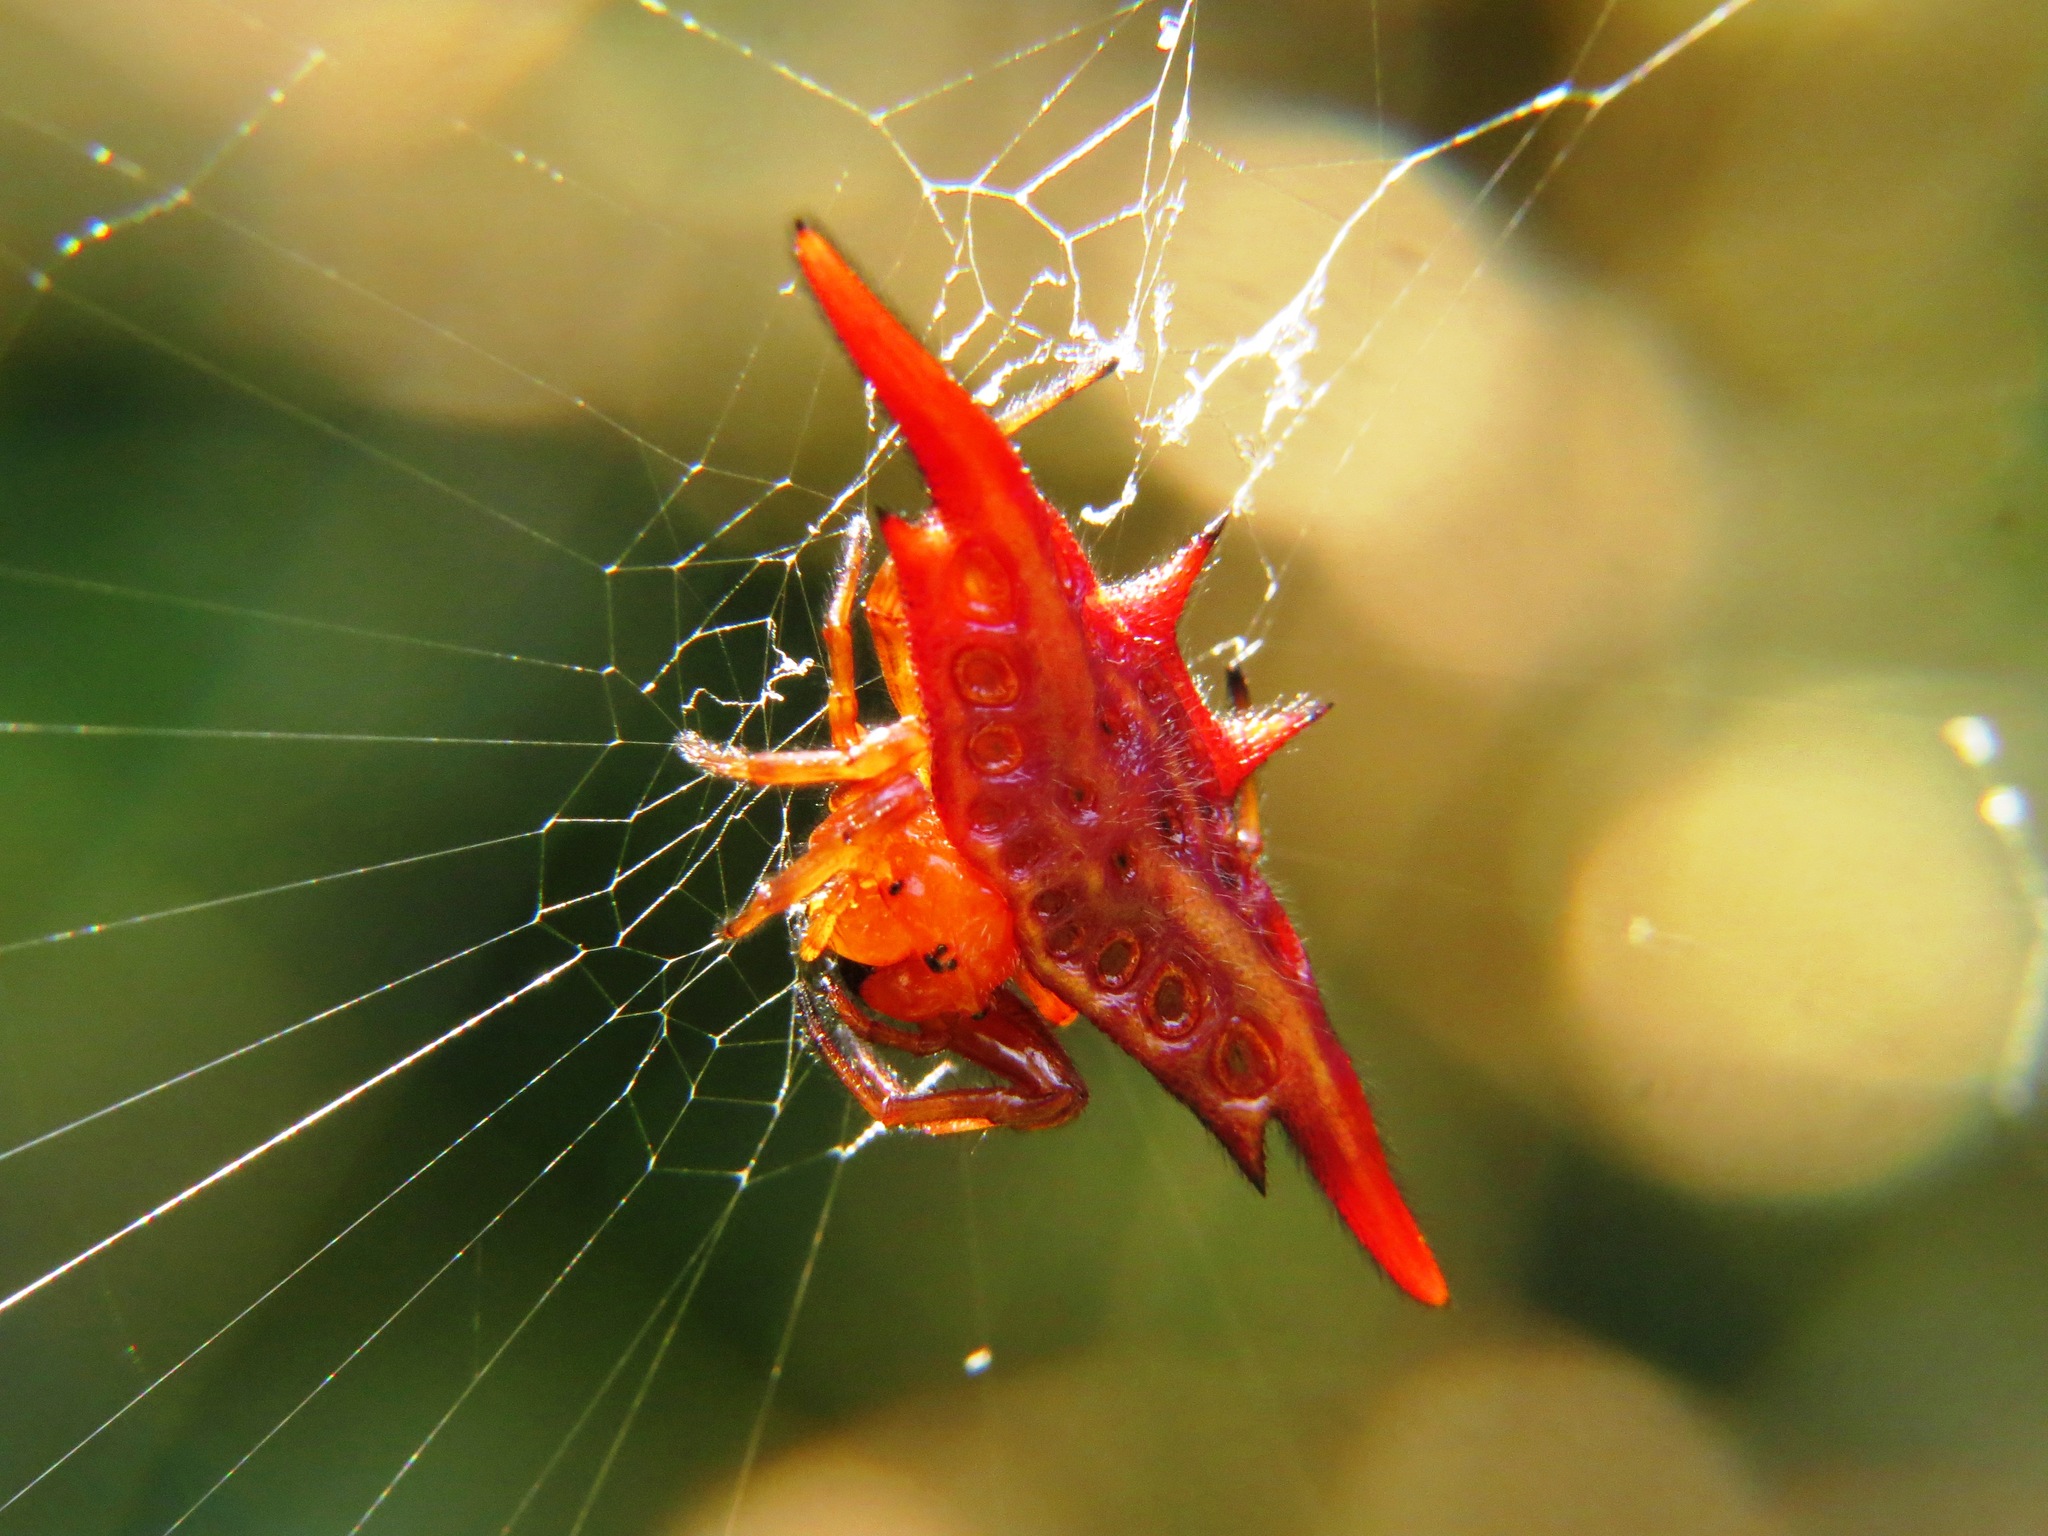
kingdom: Animalia
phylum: Arthropoda
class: Arachnida
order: Araneae
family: Araneidae
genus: Gasteracantha
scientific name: Gasteracantha versicolor
